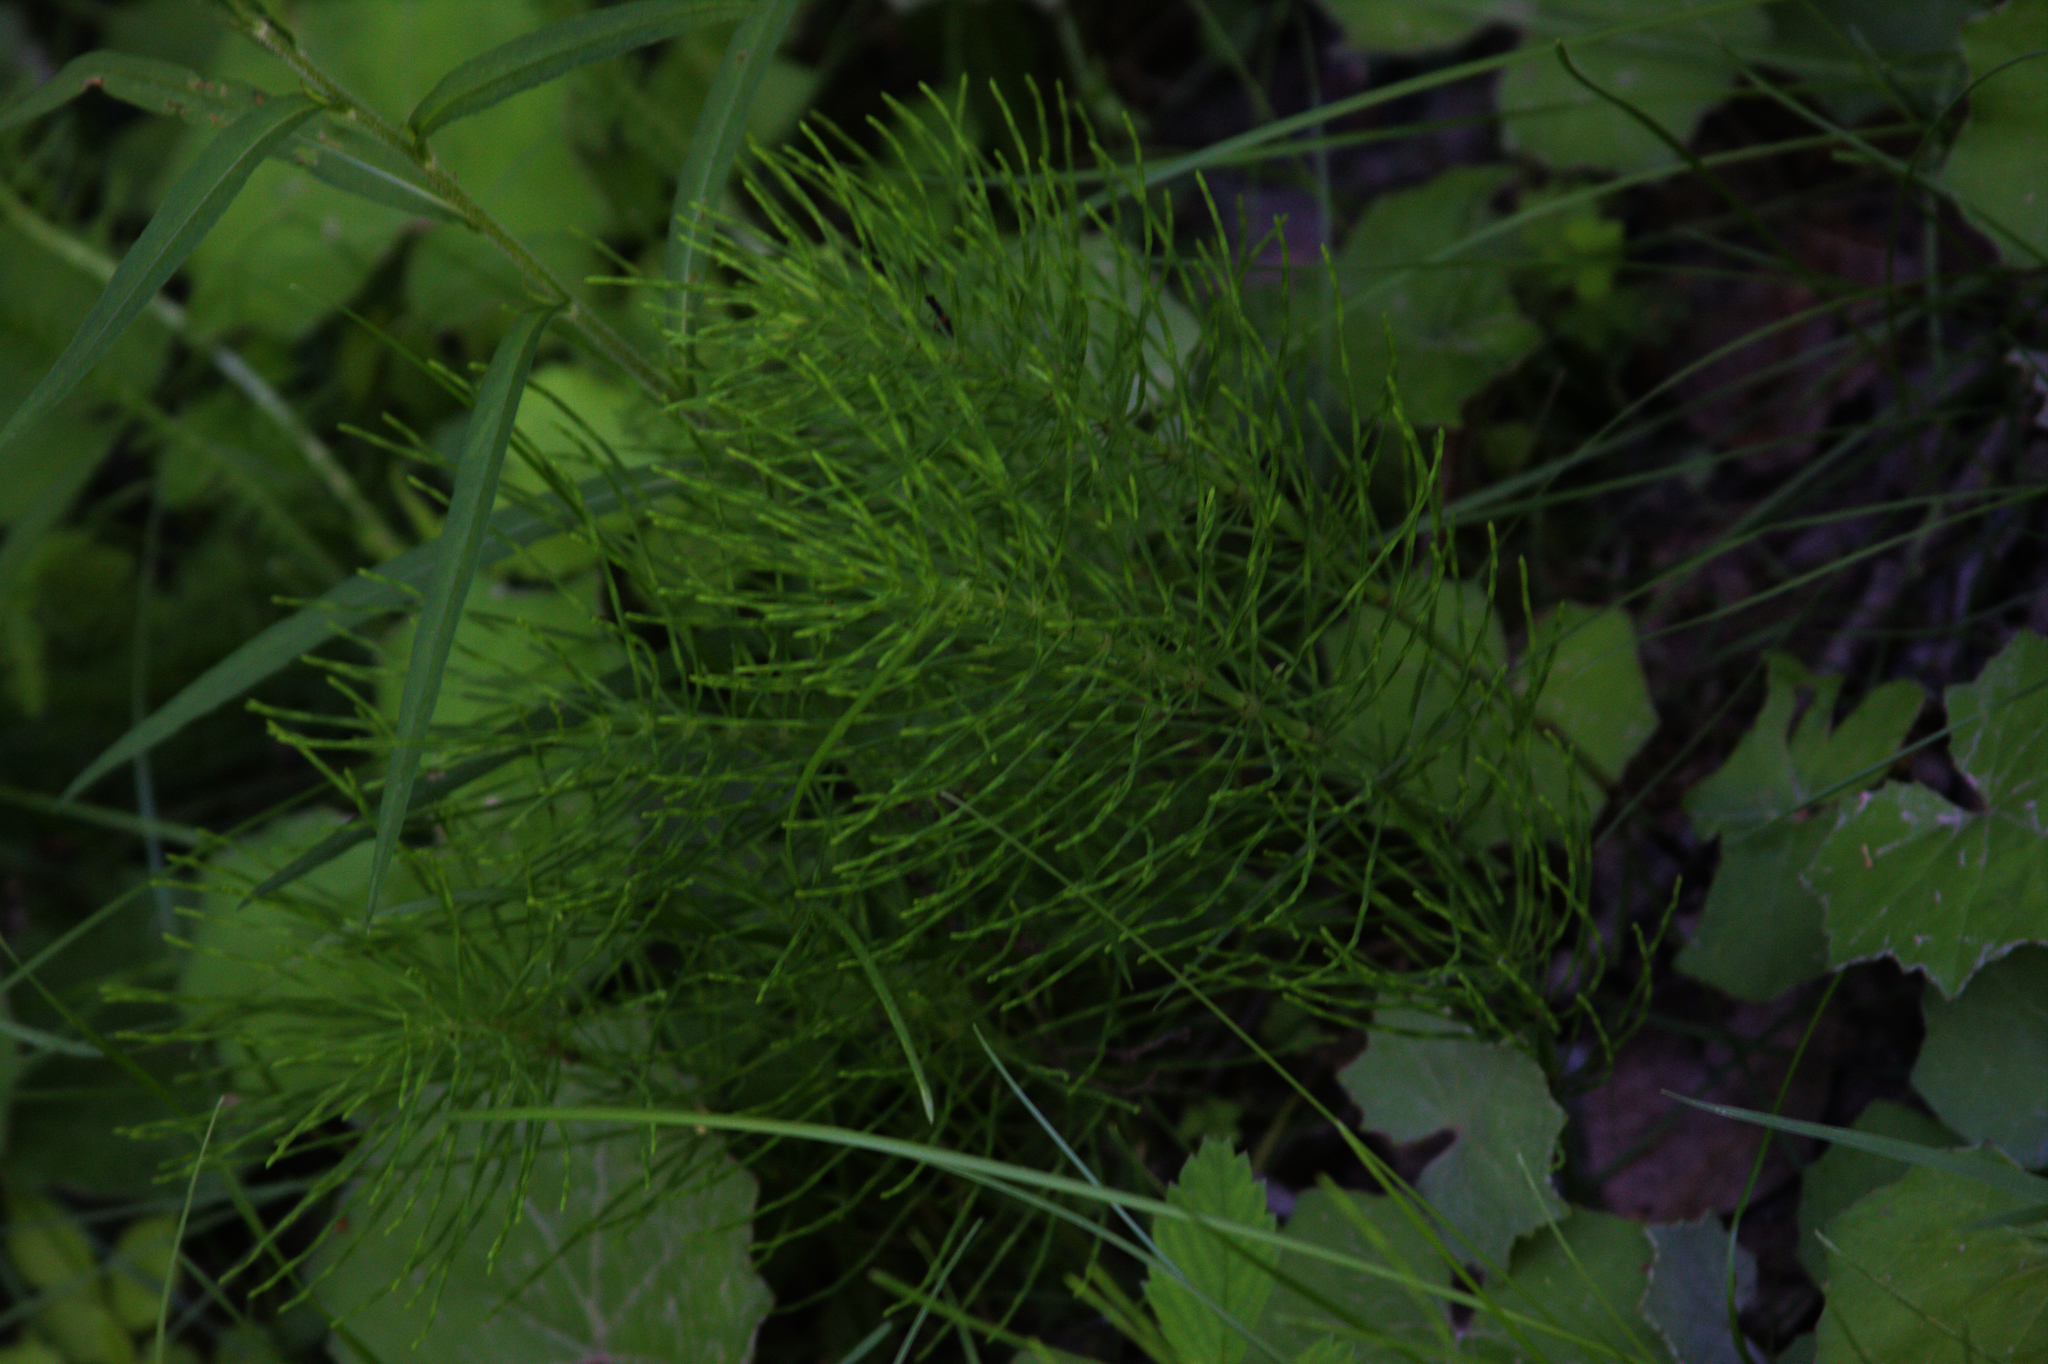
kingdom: Plantae
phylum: Tracheophyta
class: Polypodiopsida
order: Equisetales
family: Equisetaceae
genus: Equisetum
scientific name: Equisetum sylvaticum
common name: Wood horsetail
